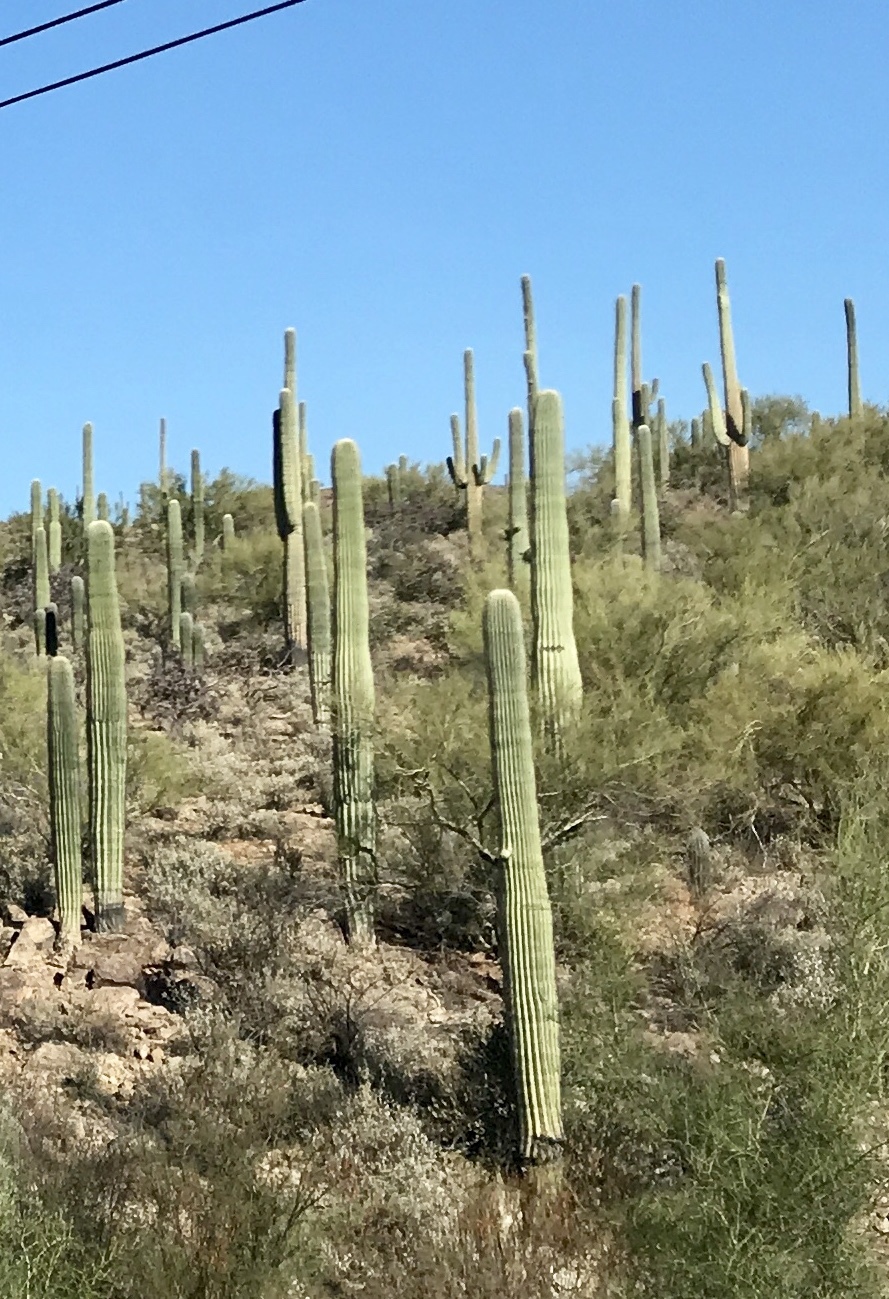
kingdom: Plantae
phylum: Tracheophyta
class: Magnoliopsida
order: Caryophyllales
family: Cactaceae
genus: Carnegiea
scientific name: Carnegiea gigantea
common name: Saguaro
